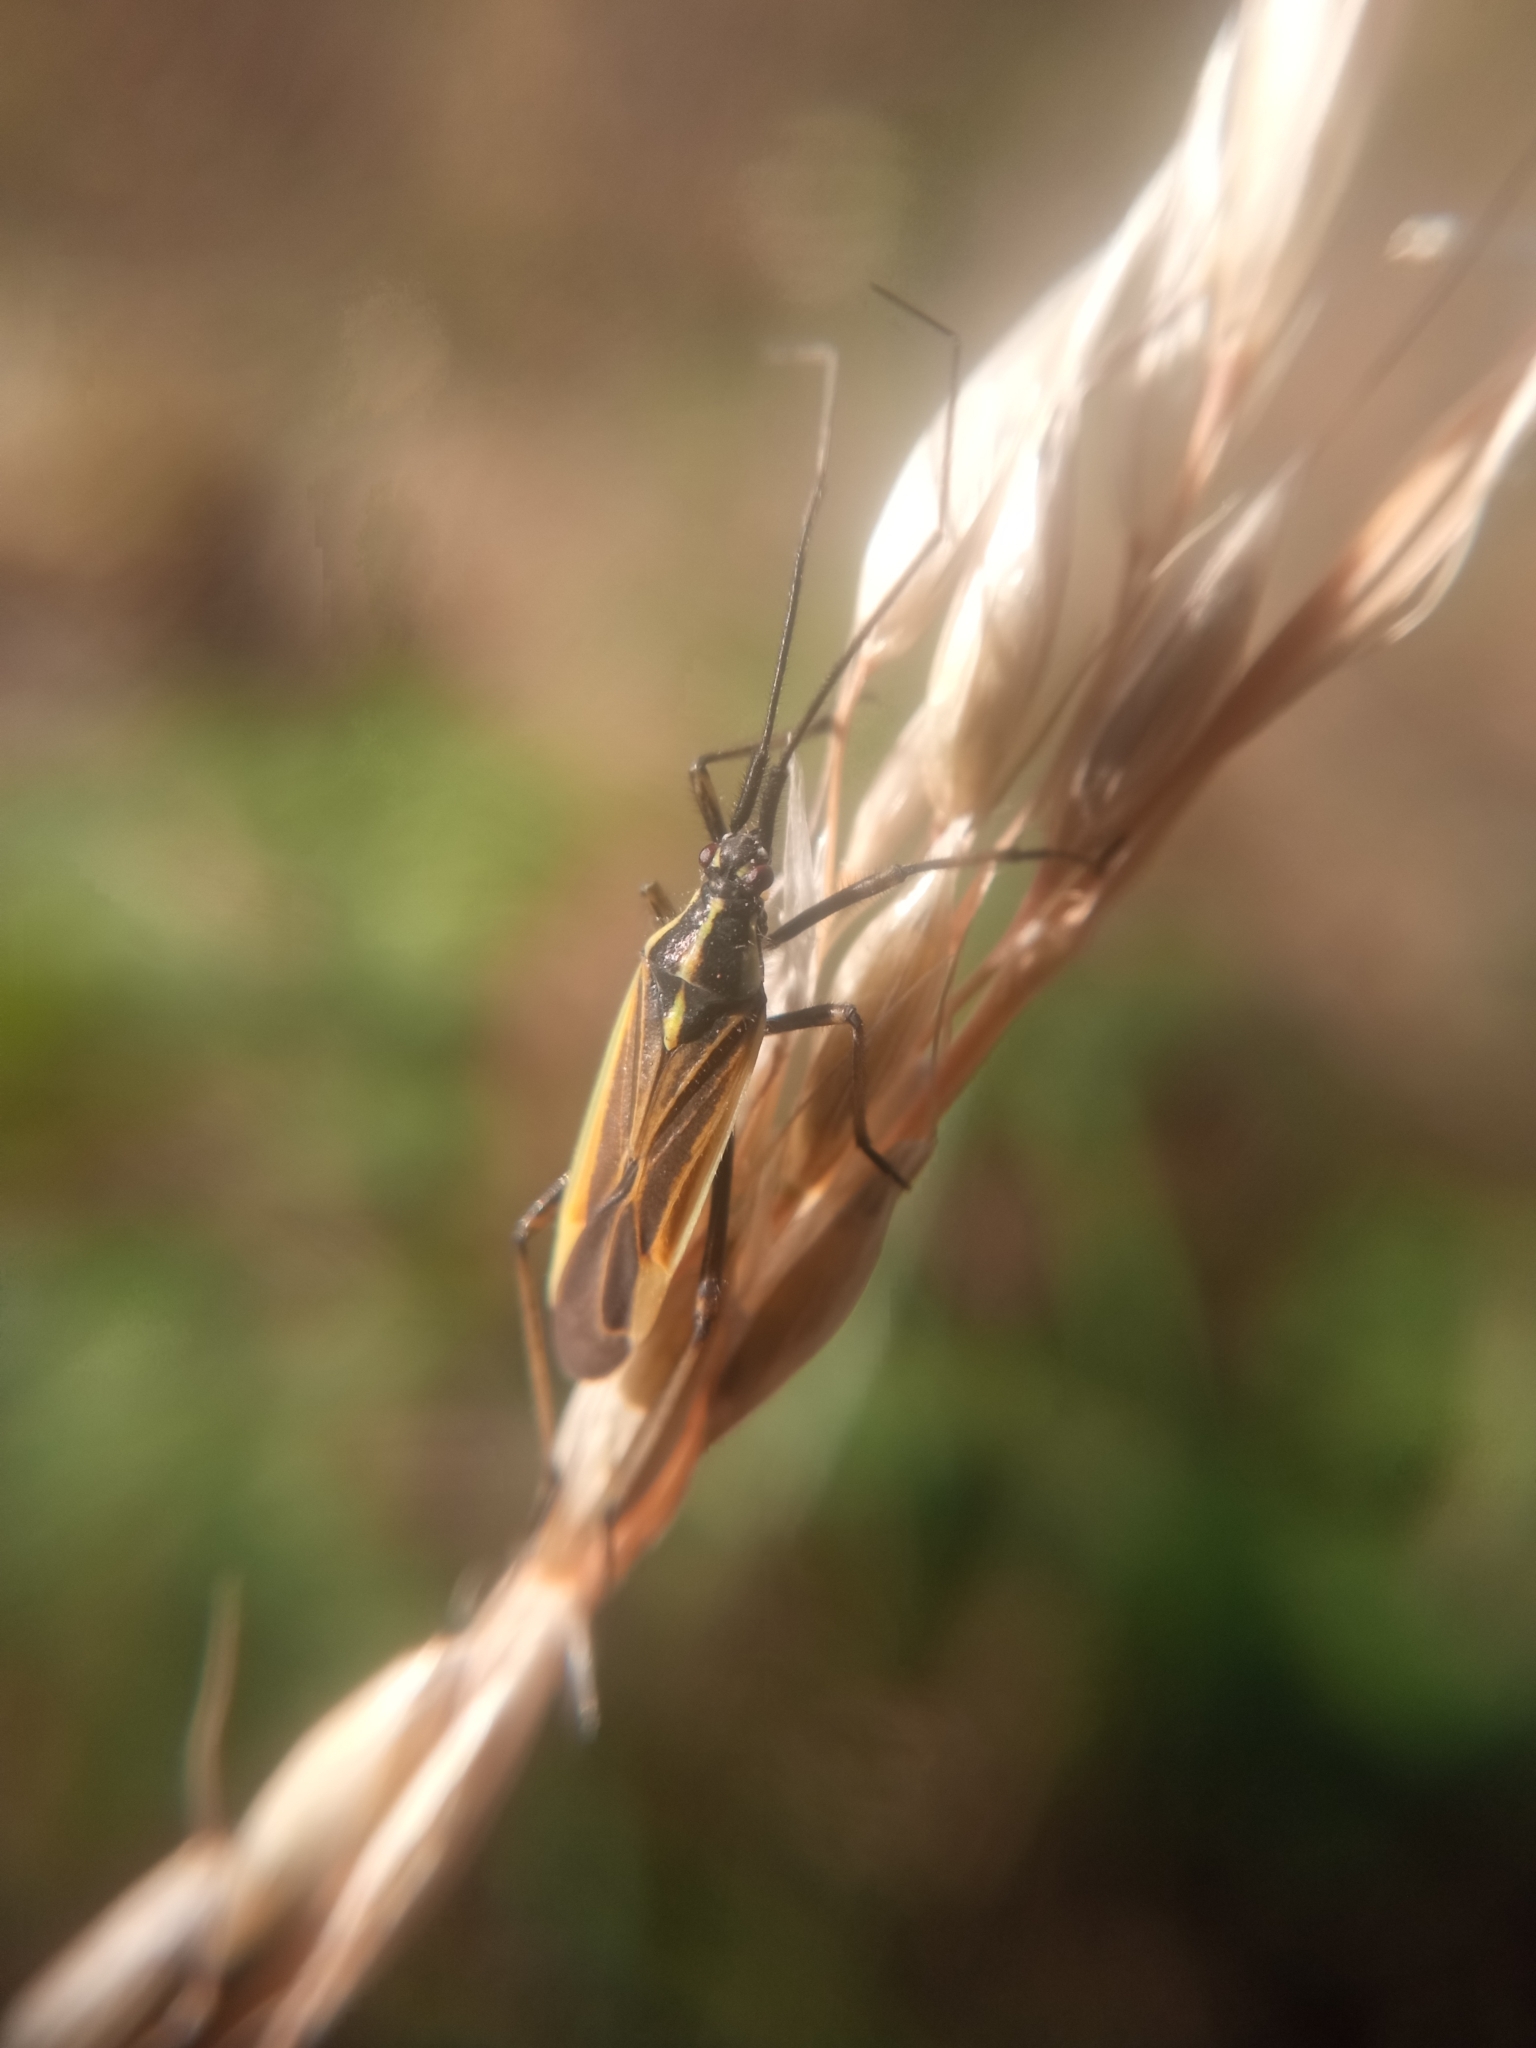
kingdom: Animalia
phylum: Arthropoda
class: Insecta
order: Hemiptera
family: Miridae
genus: Leptopterna
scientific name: Leptopterna dolabrata
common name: Meadow plant bug
